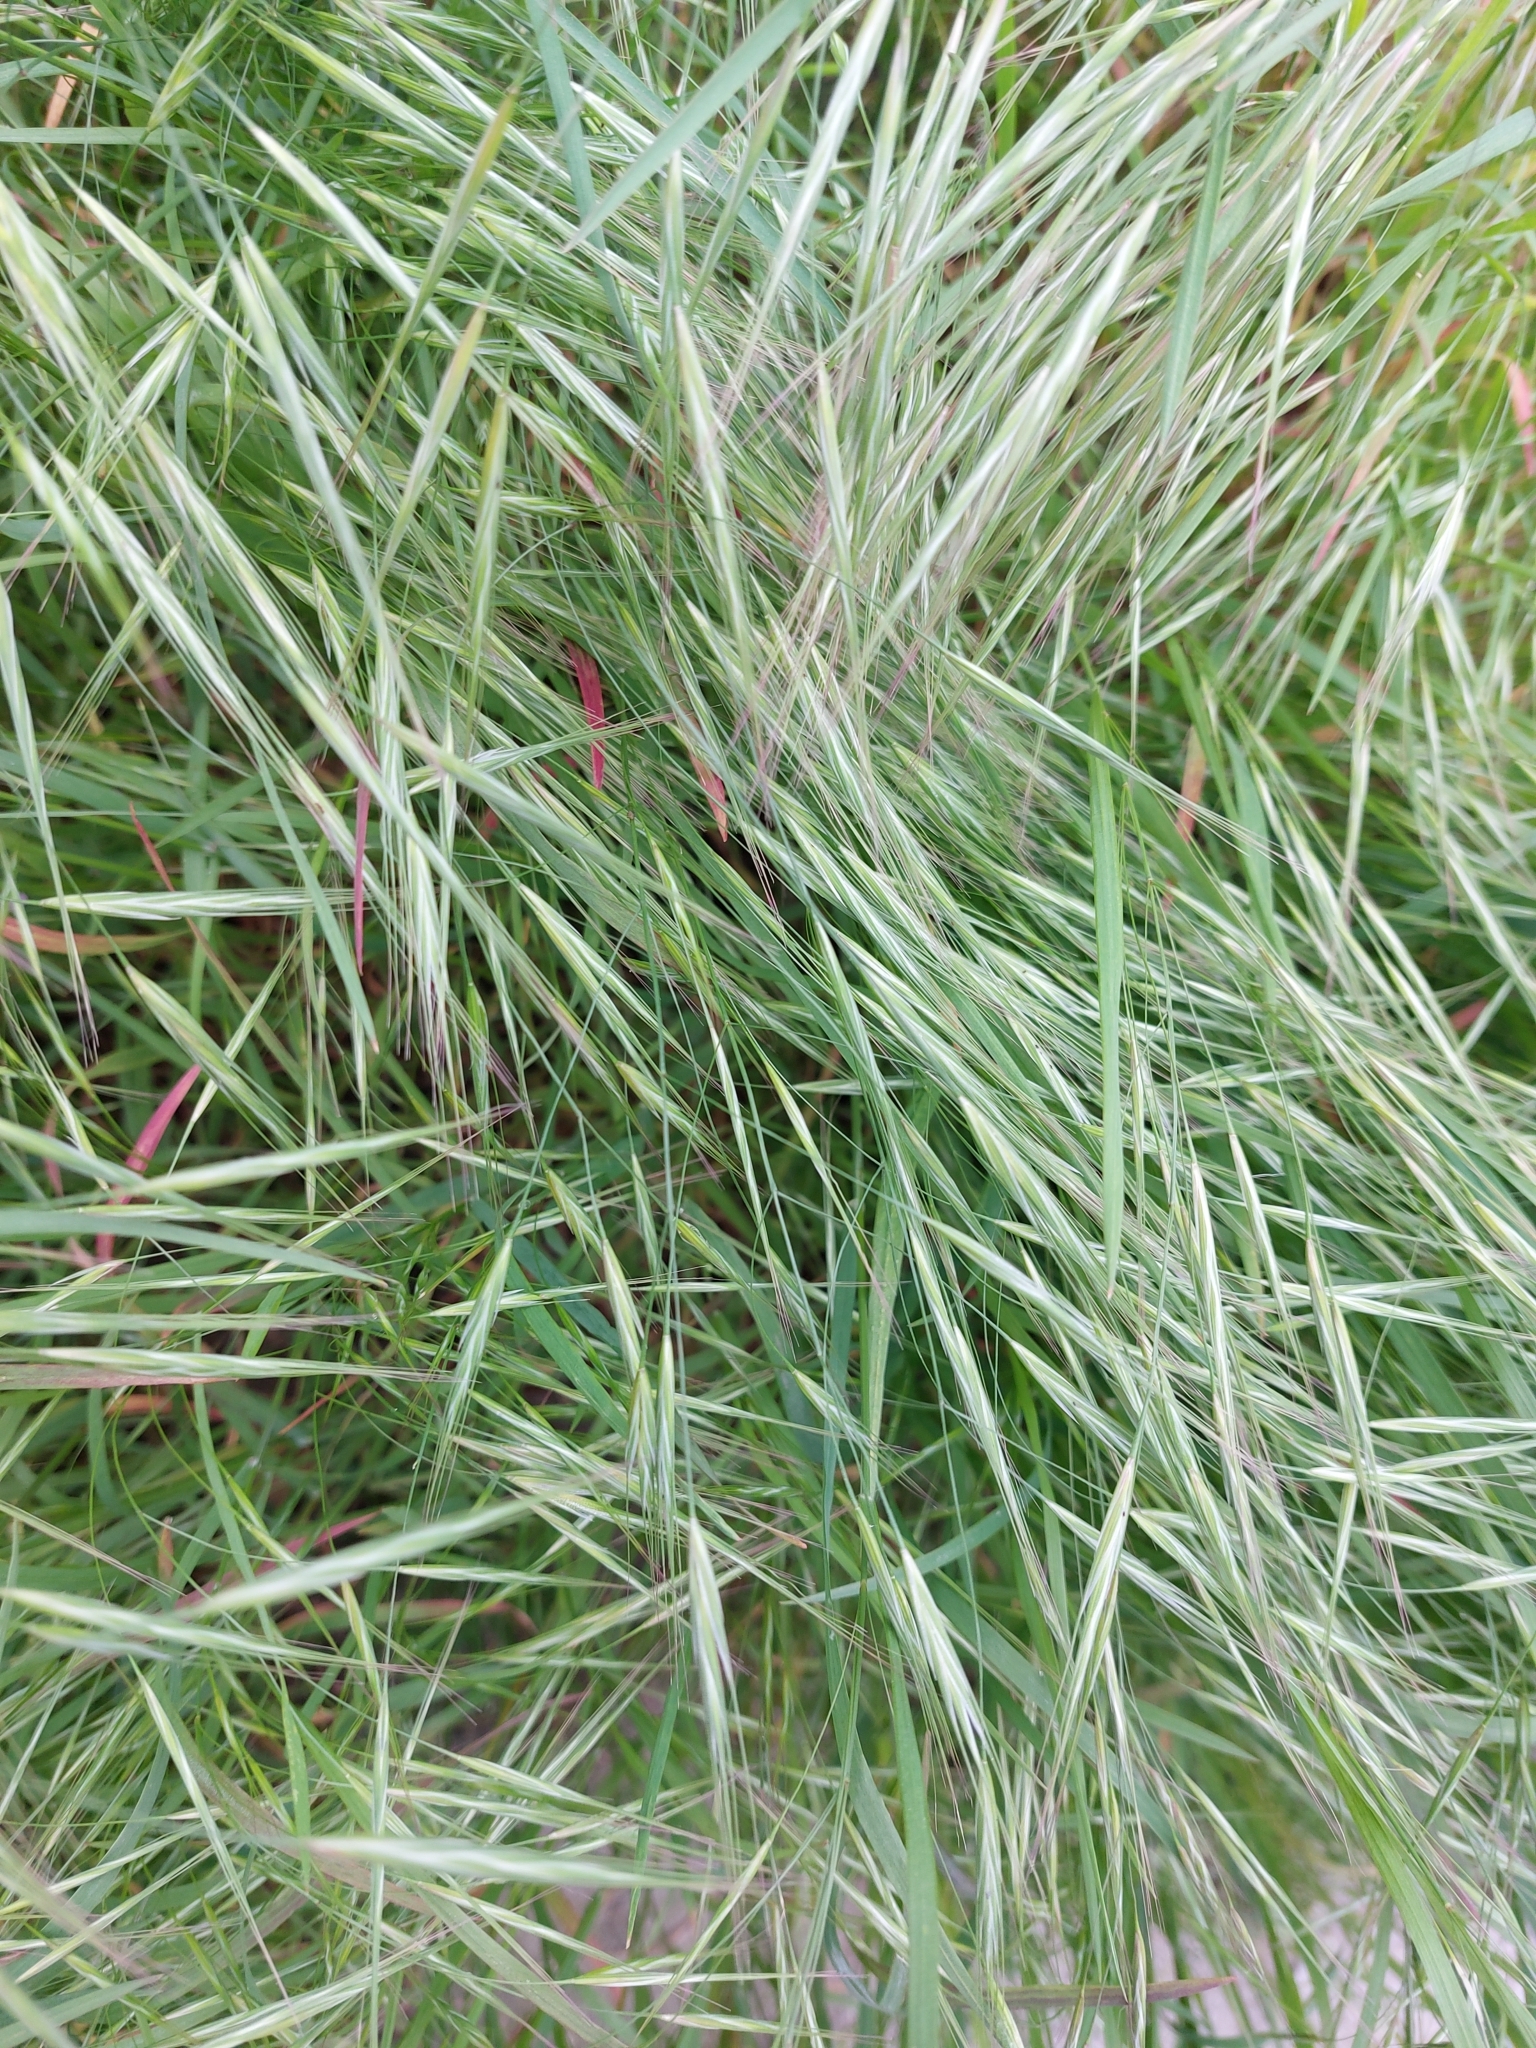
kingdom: Plantae
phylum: Tracheophyta
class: Liliopsida
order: Poales
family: Poaceae
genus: Bromus
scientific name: Bromus sterilis
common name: Poverty brome
